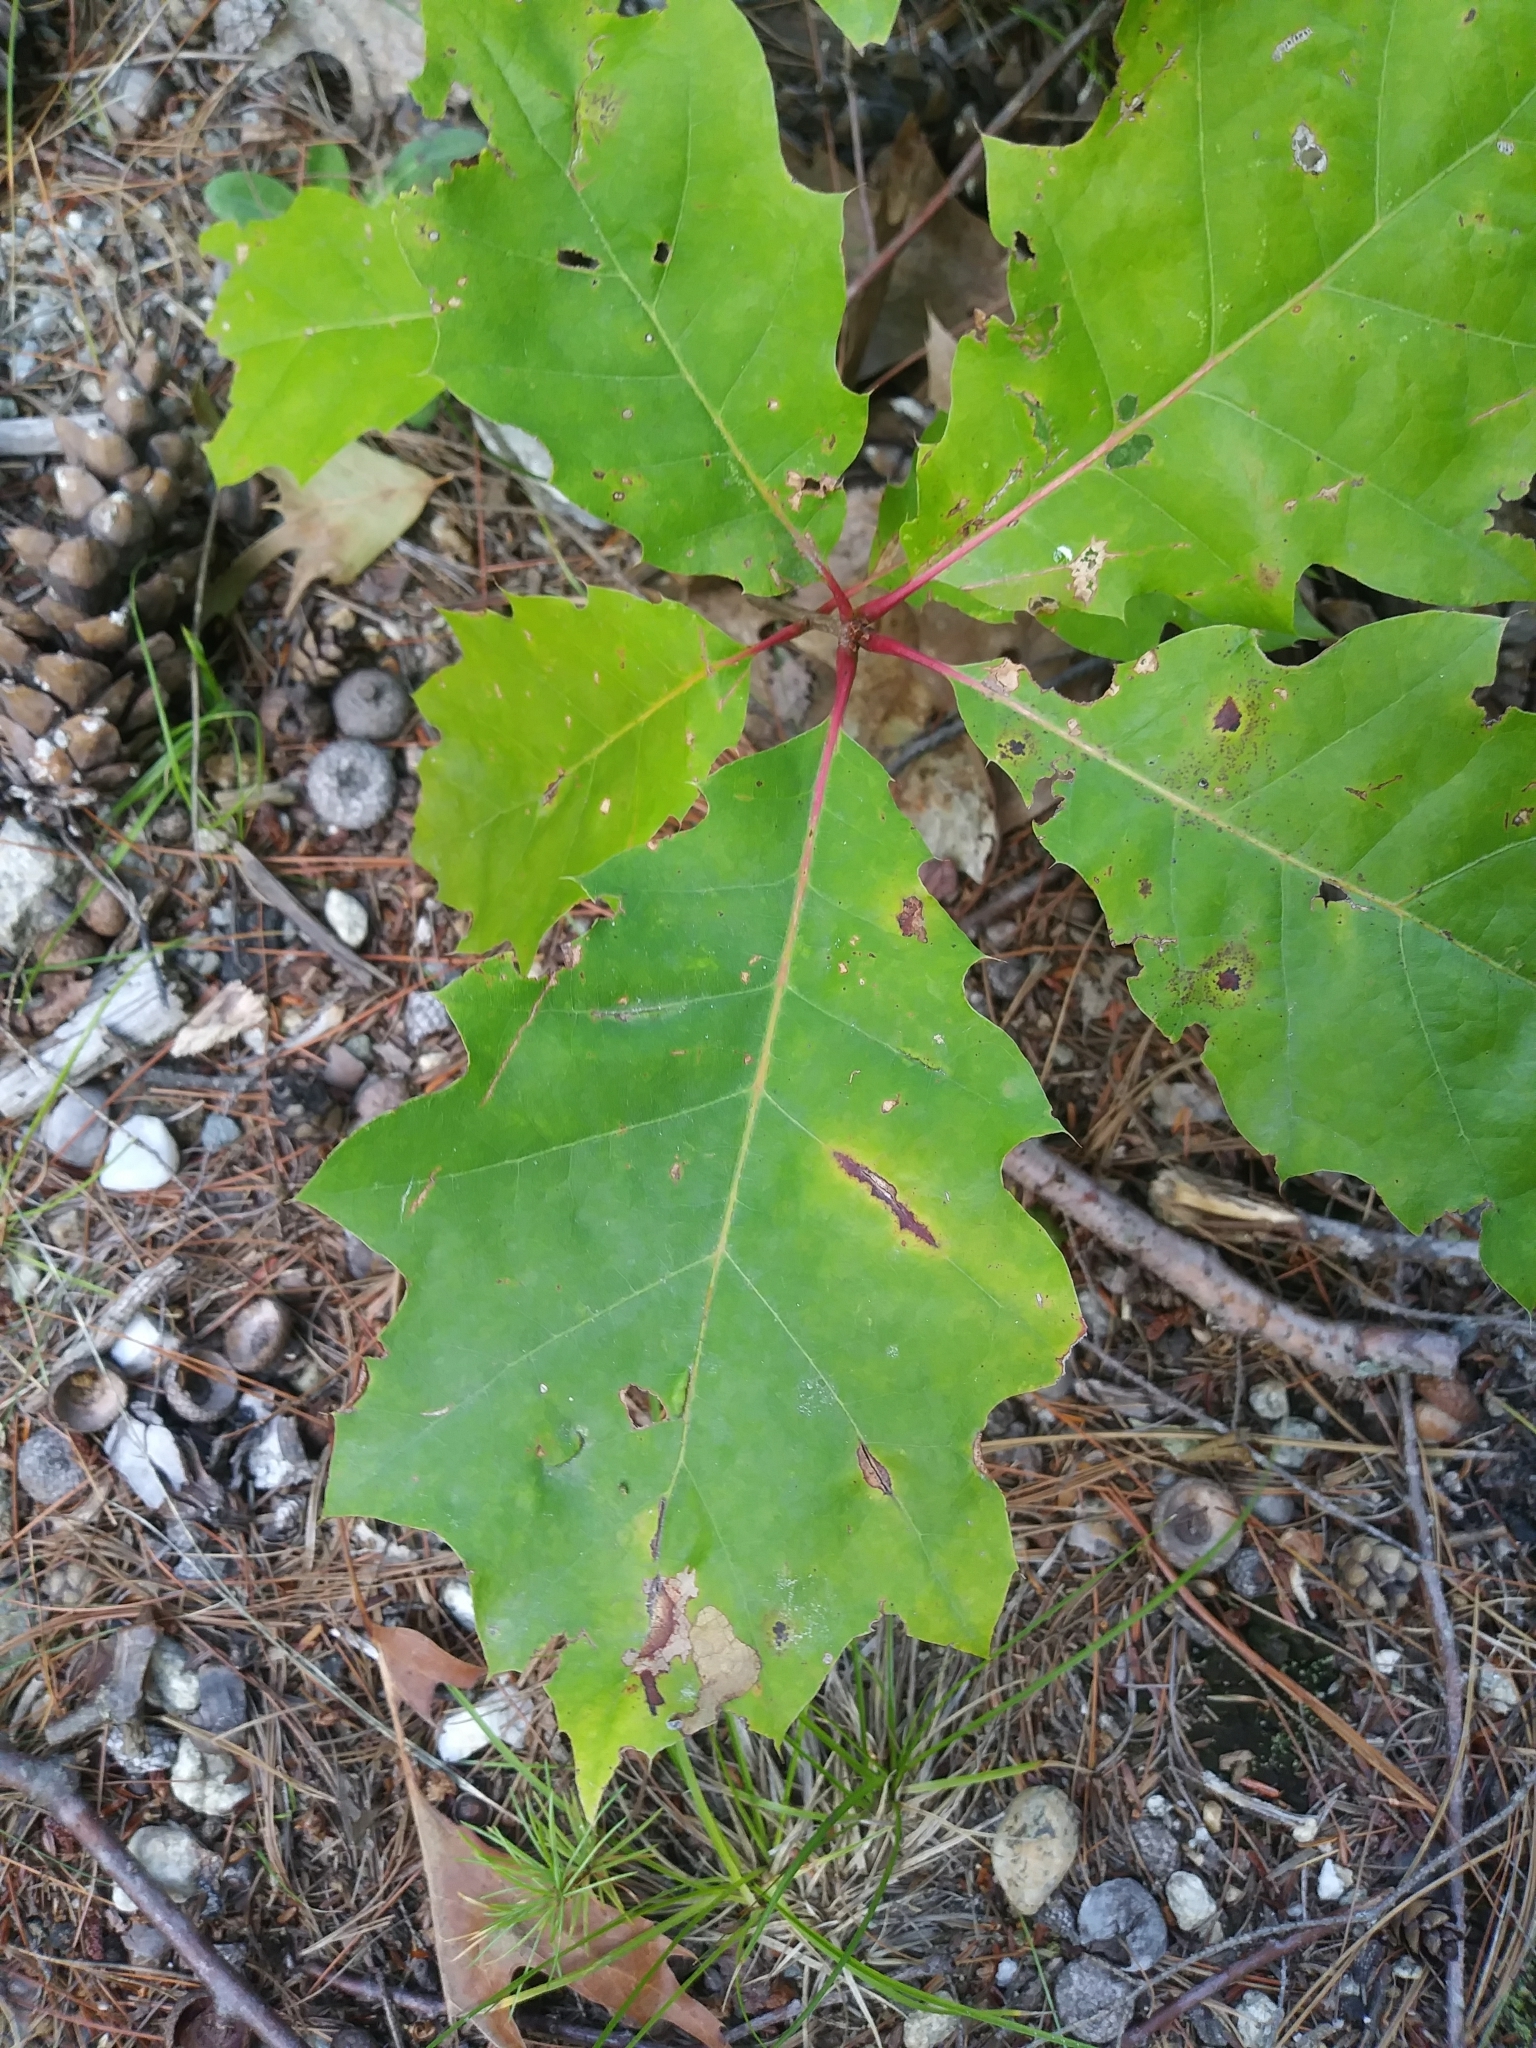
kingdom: Plantae
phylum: Tracheophyta
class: Magnoliopsida
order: Fagales
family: Fagaceae
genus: Quercus
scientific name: Quercus rubra
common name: Red oak
